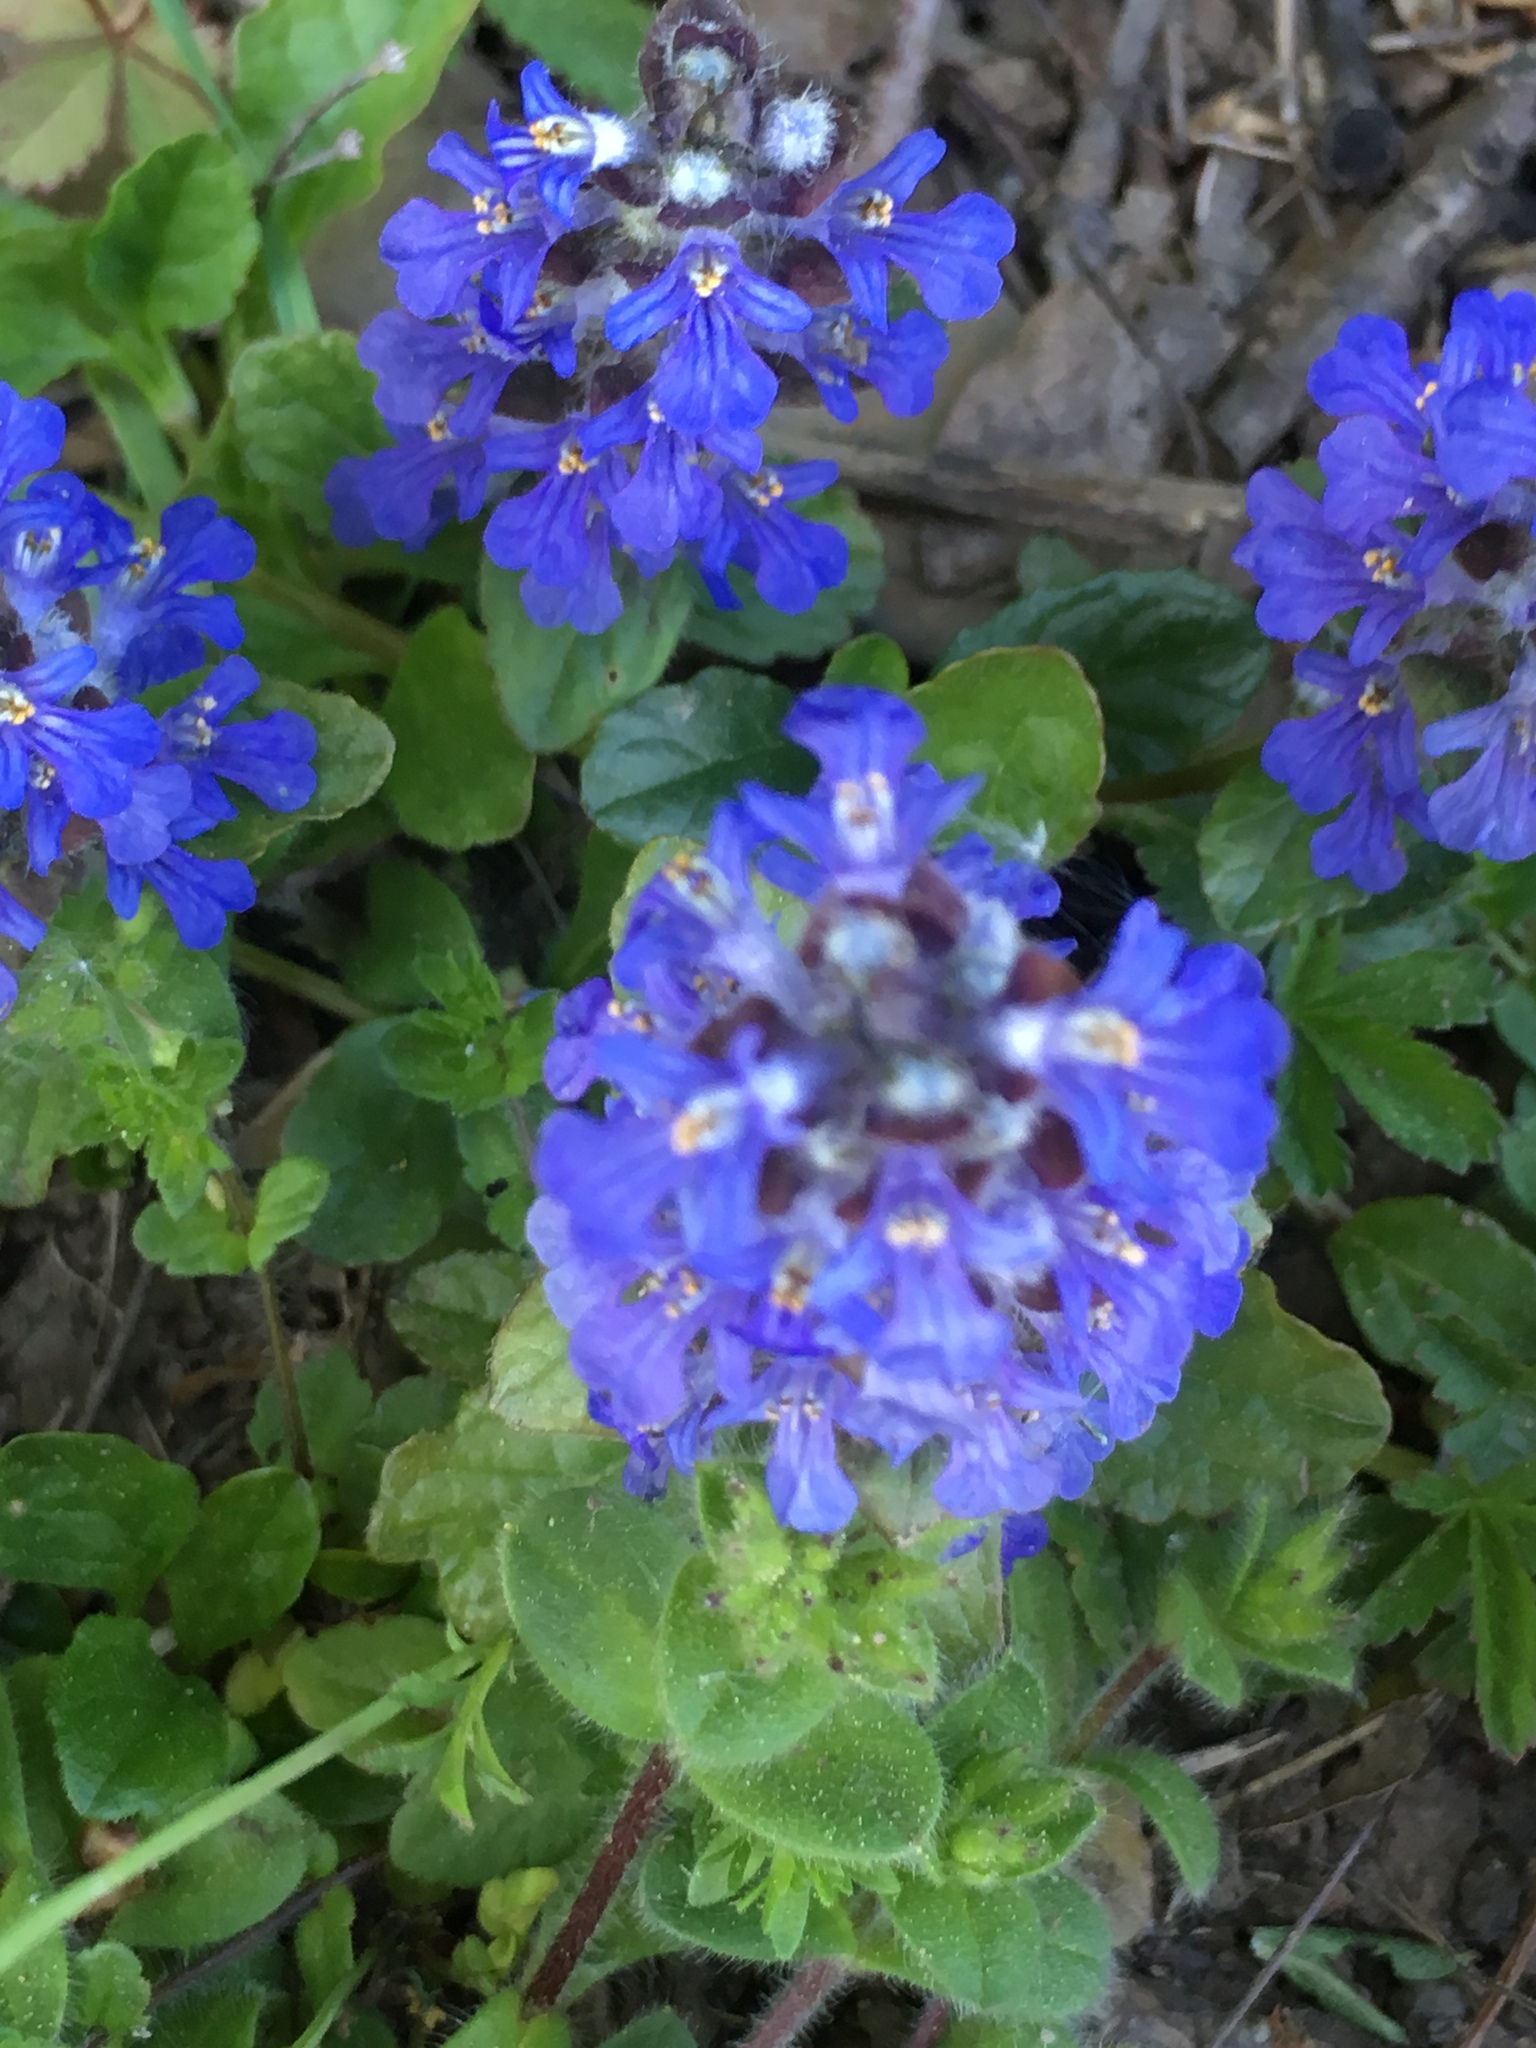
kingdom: Plantae
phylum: Tracheophyta
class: Magnoliopsida
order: Lamiales
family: Lamiaceae
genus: Ajuga
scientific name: Ajuga reptans
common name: Bugle
